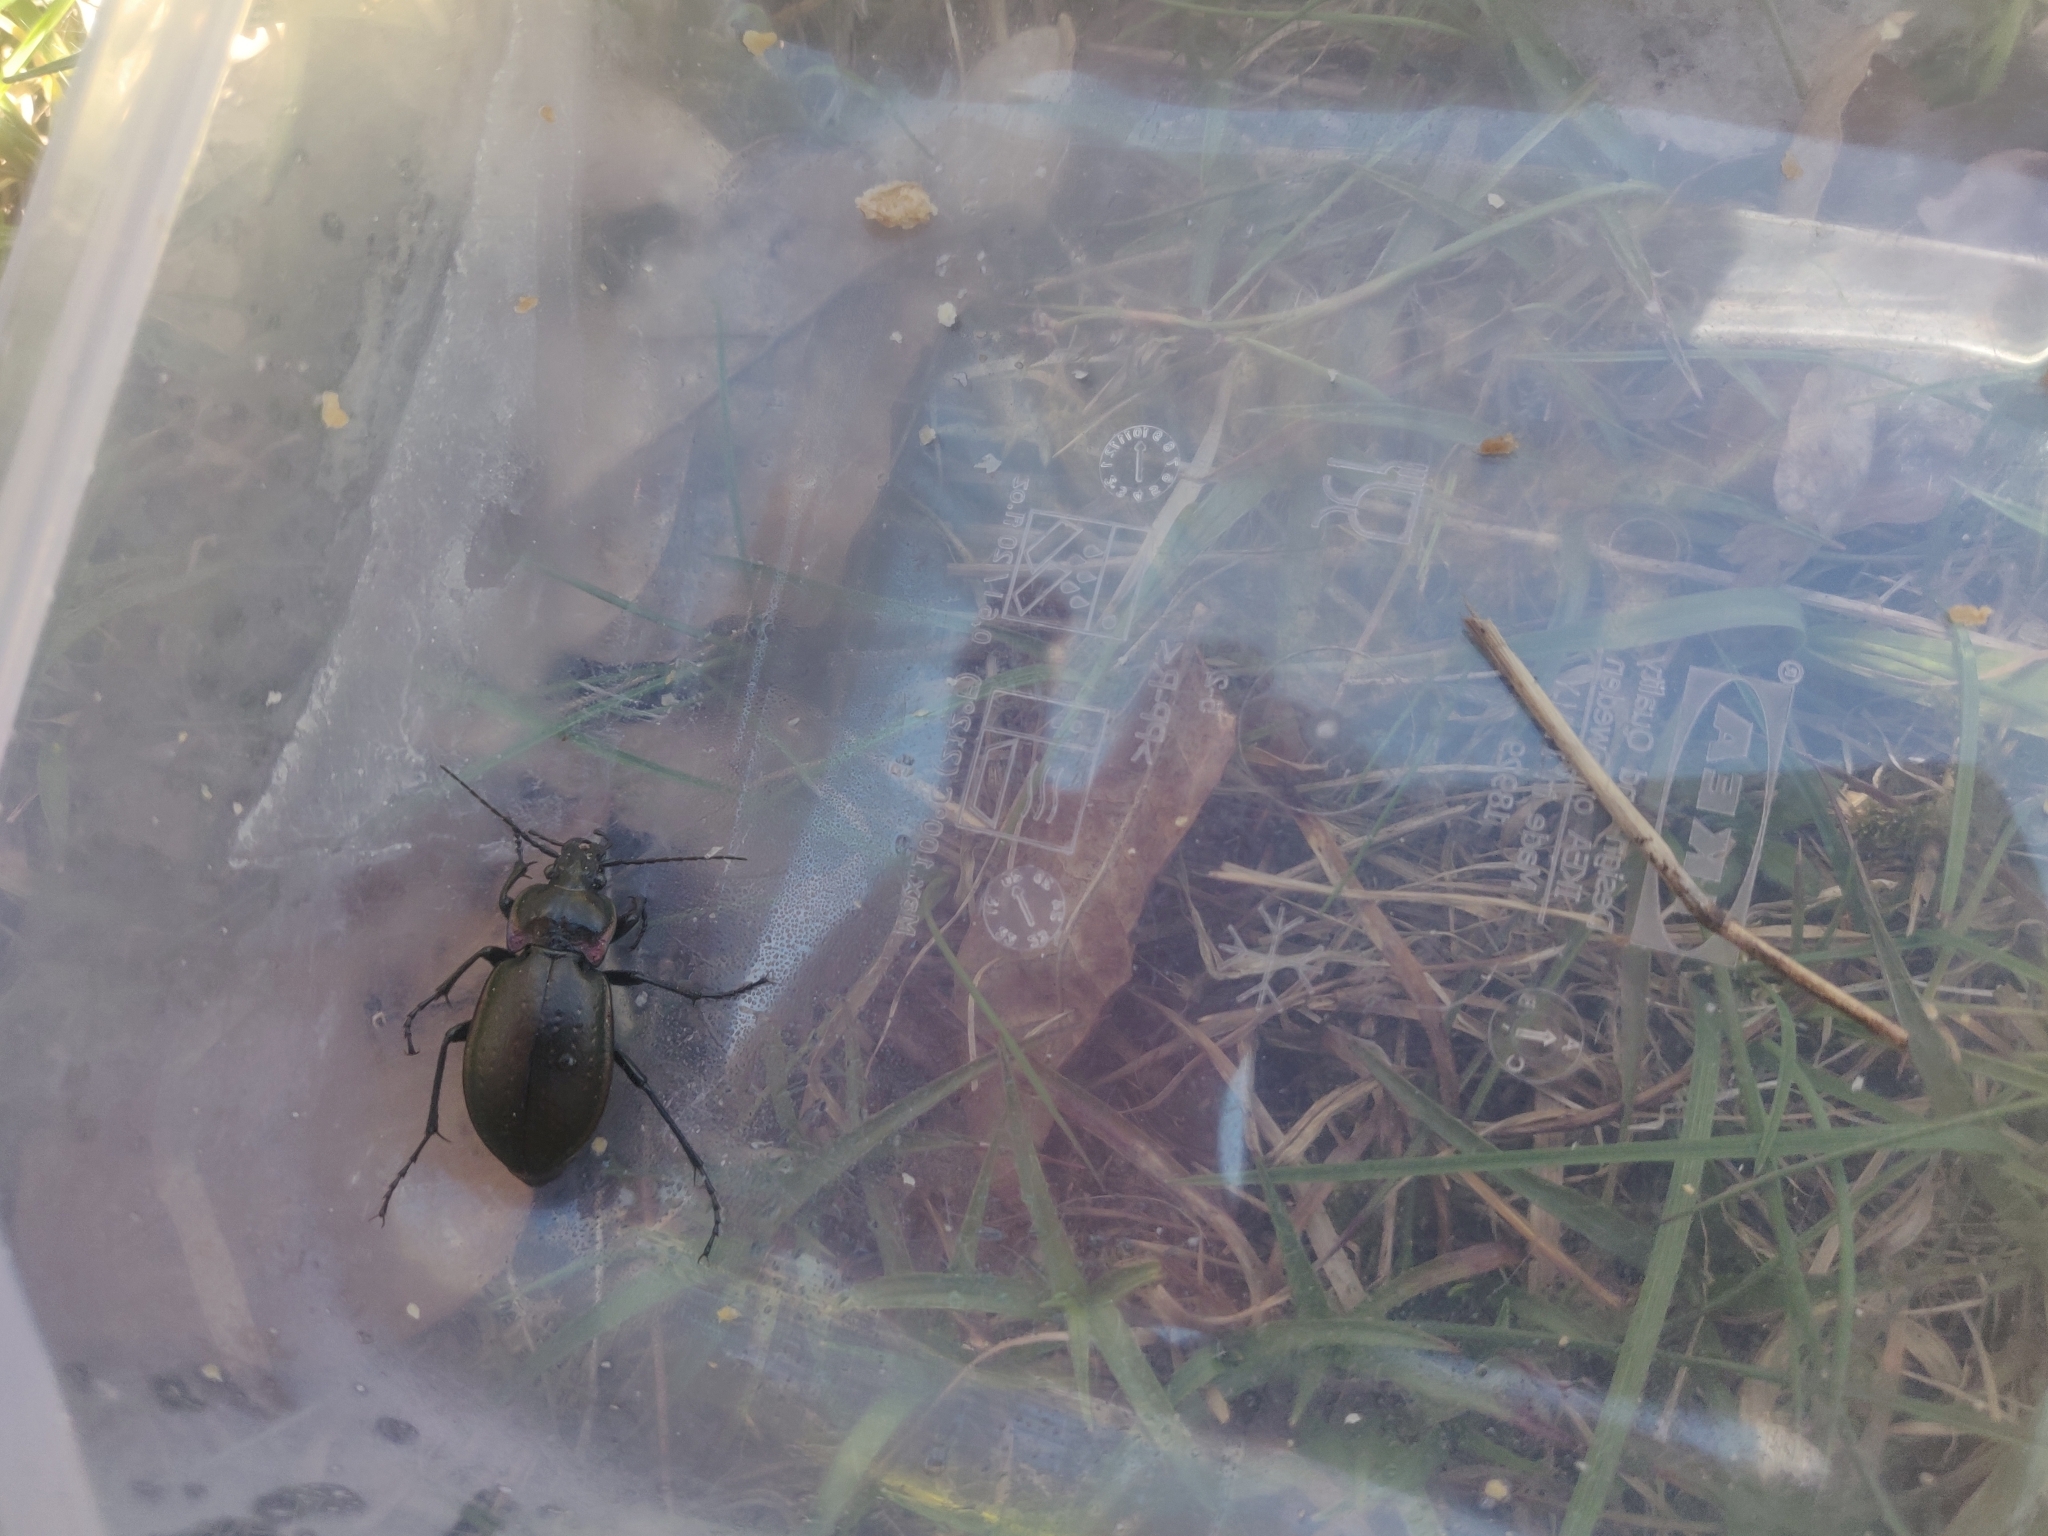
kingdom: Animalia
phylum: Arthropoda
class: Insecta
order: Coleoptera
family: Carabidae
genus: Carabus
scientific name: Carabus nemoralis
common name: European ground beetle
